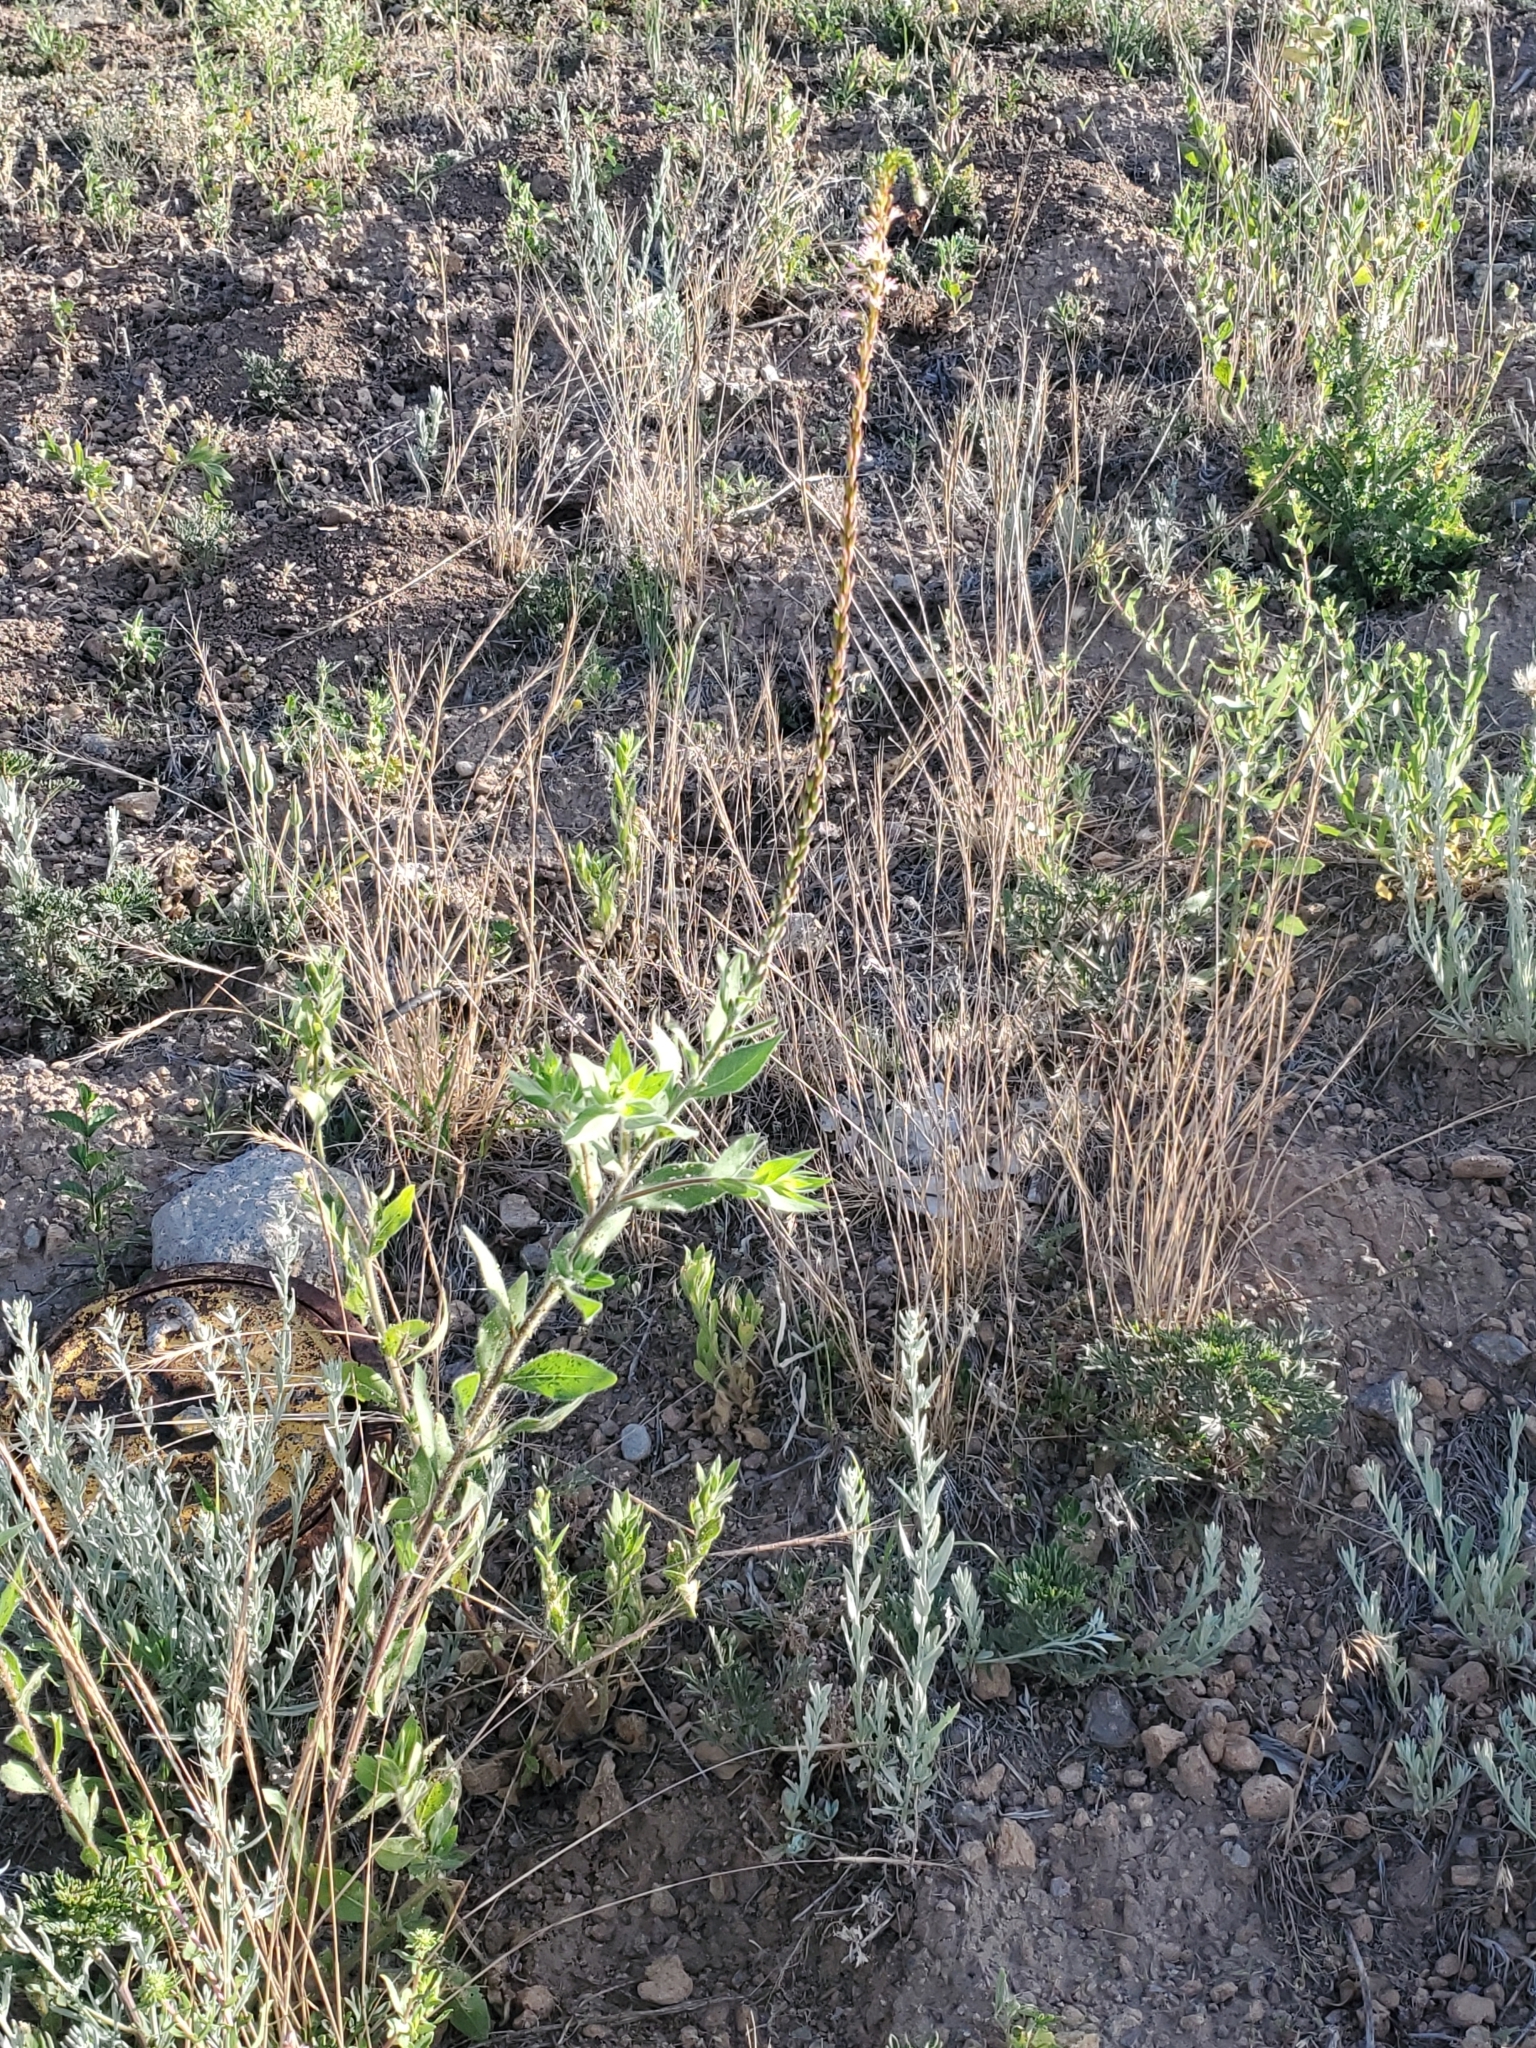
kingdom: Plantae
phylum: Tracheophyta
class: Magnoliopsida
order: Myrtales
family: Onagraceae
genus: Oenothera
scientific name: Oenothera curtiflora
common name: Velvetweed
